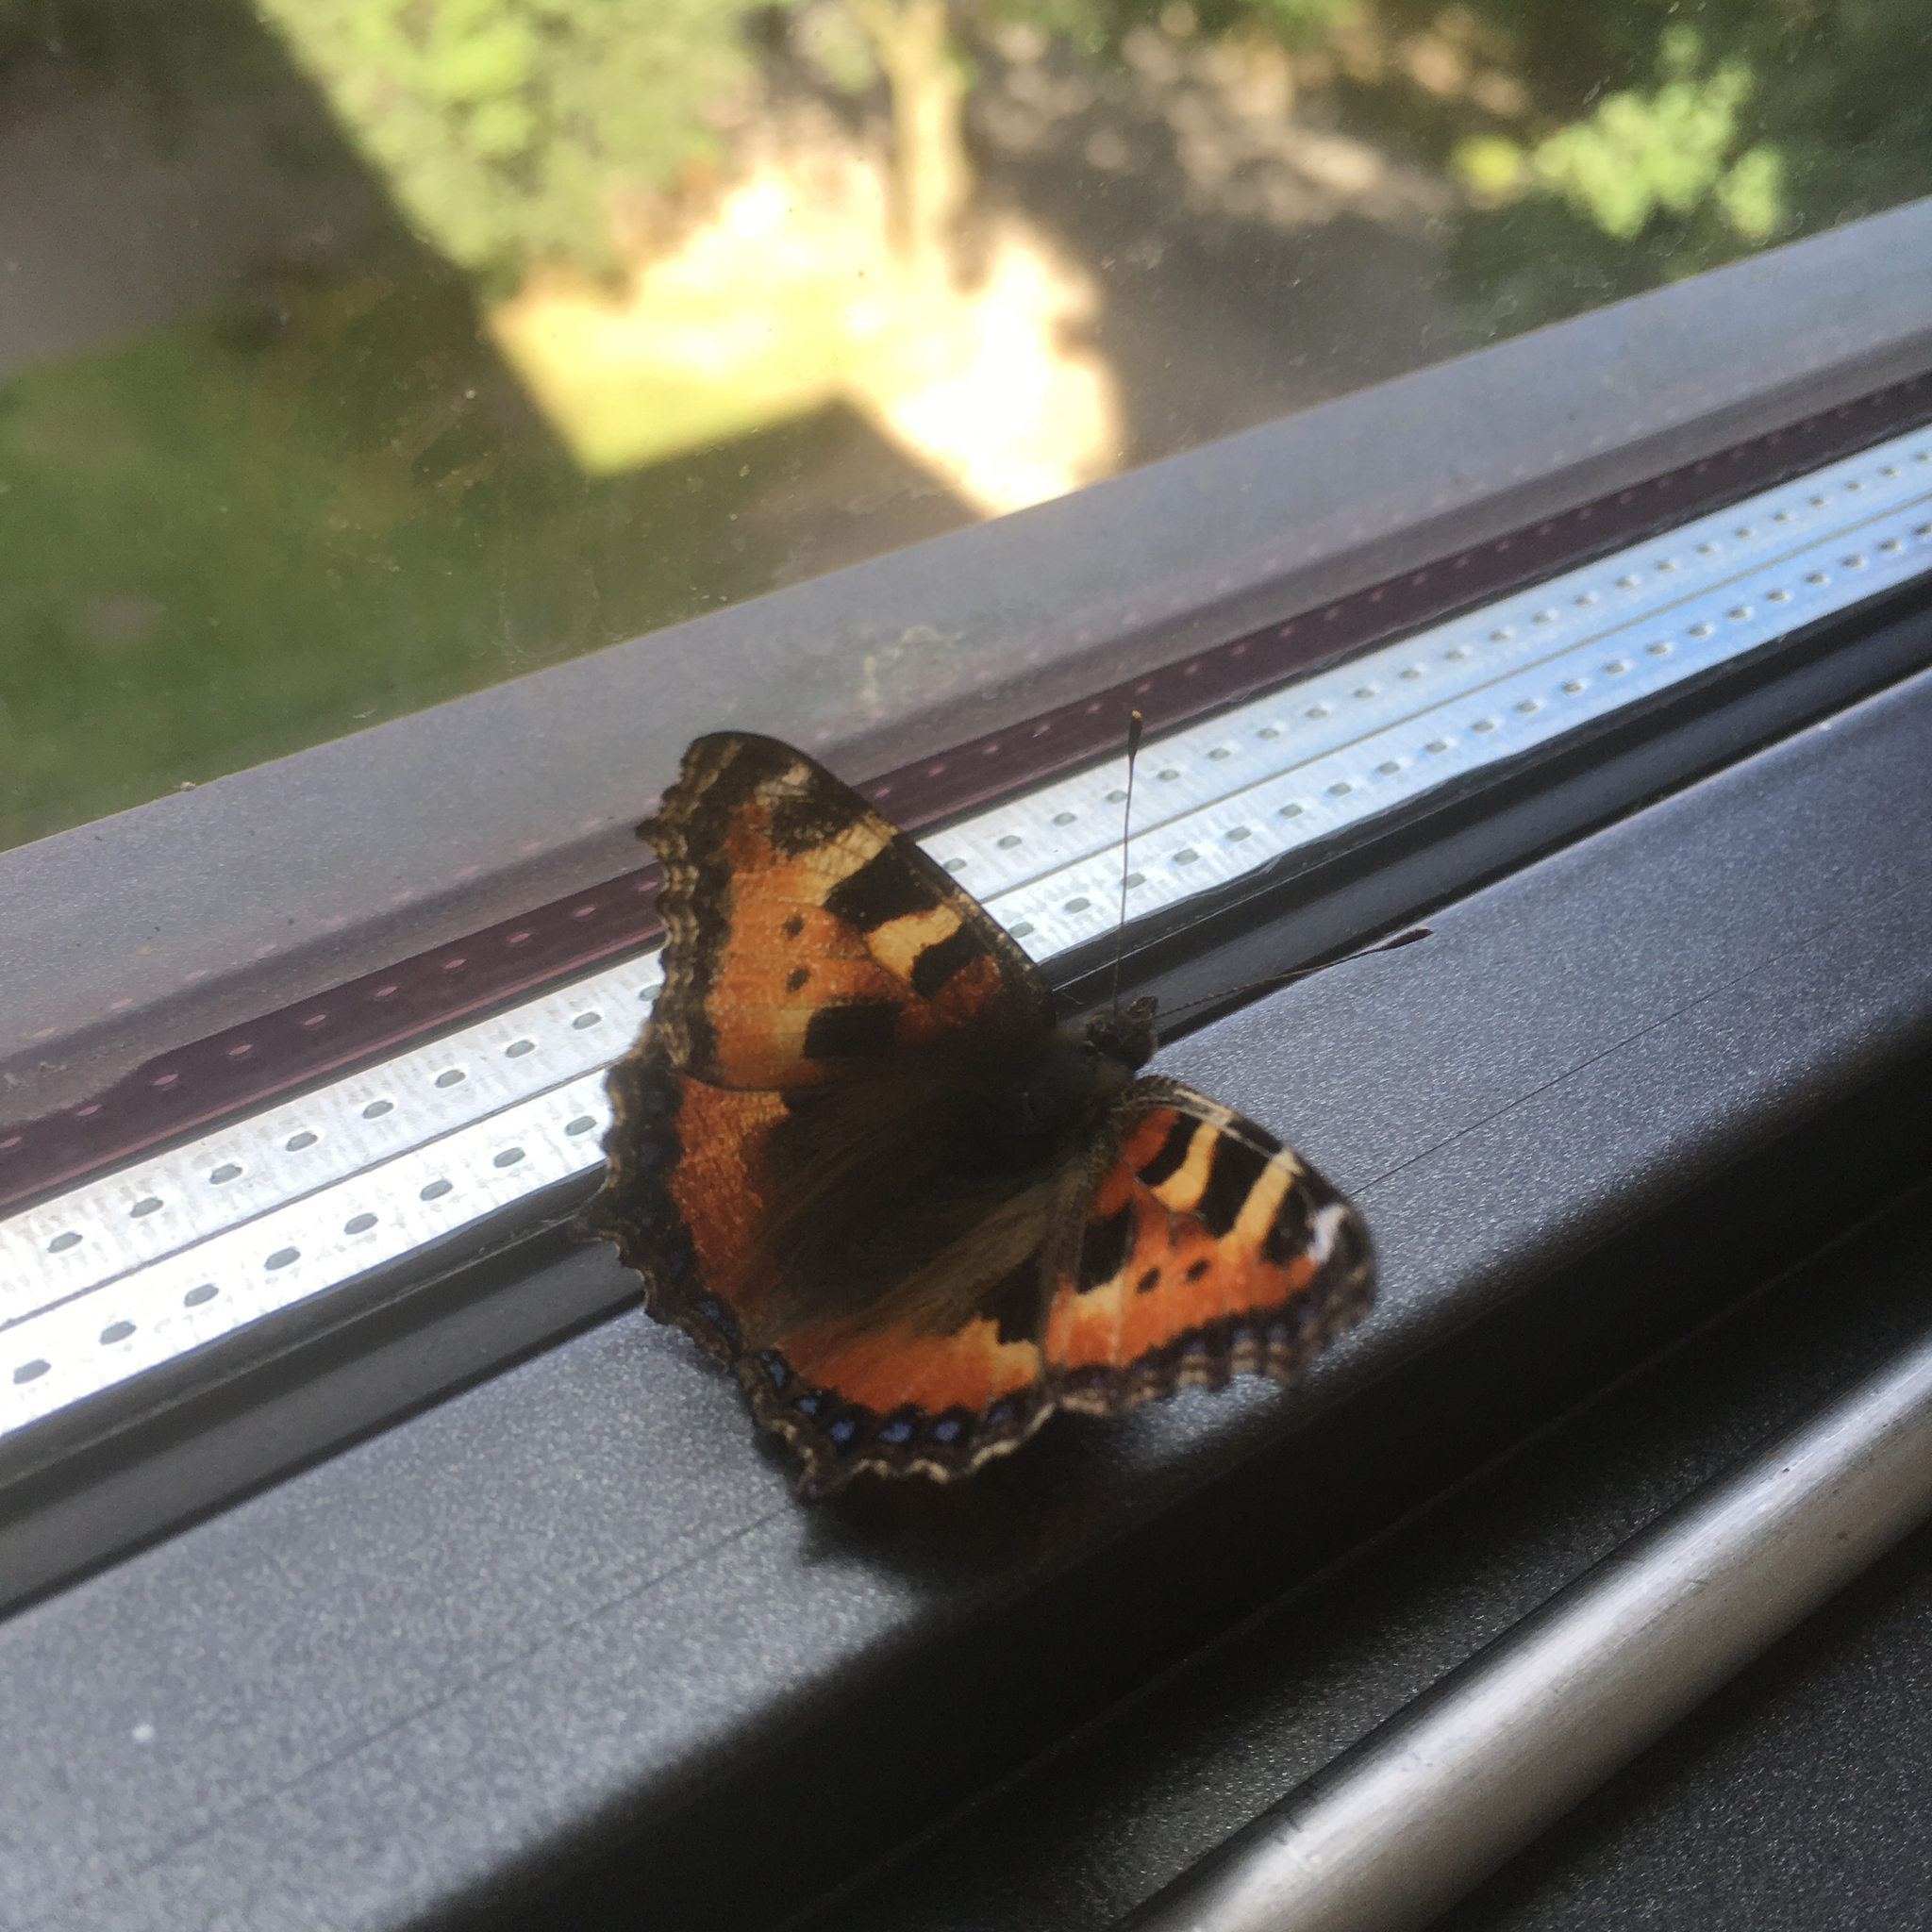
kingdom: Animalia
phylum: Arthropoda
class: Insecta
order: Lepidoptera
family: Nymphalidae
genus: Aglais
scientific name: Aglais urticae
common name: Small tortoiseshell
